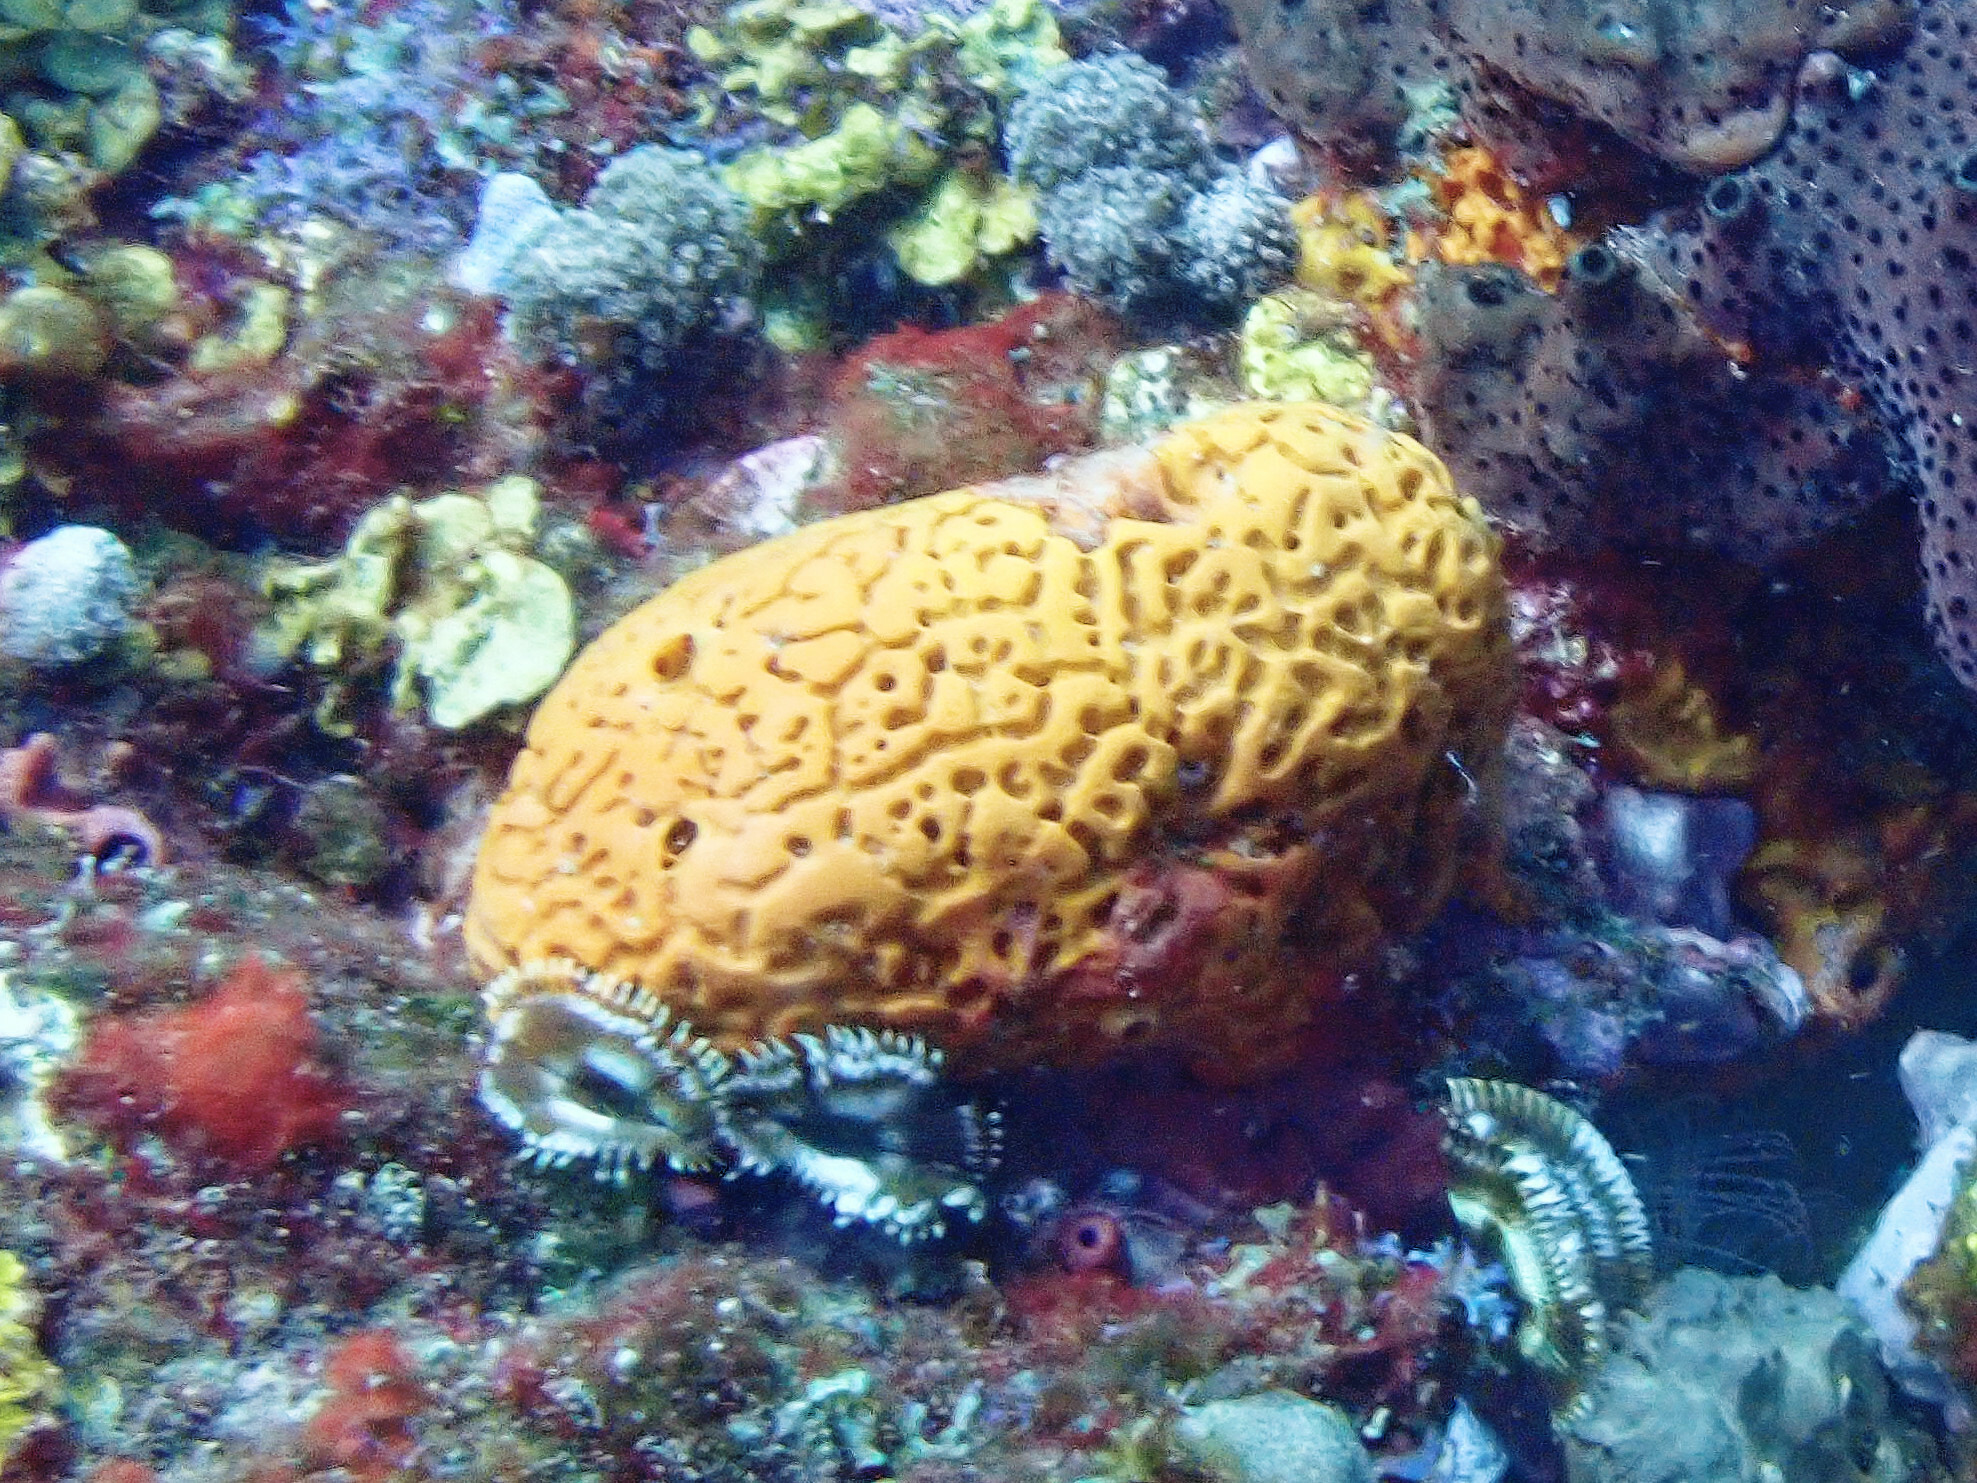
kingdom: Animalia
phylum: Porifera
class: Demospongiae
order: Agelasida
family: Agelasidae
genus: Agelas
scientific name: Agelas clathrodes
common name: Orange elephant ear sponge
